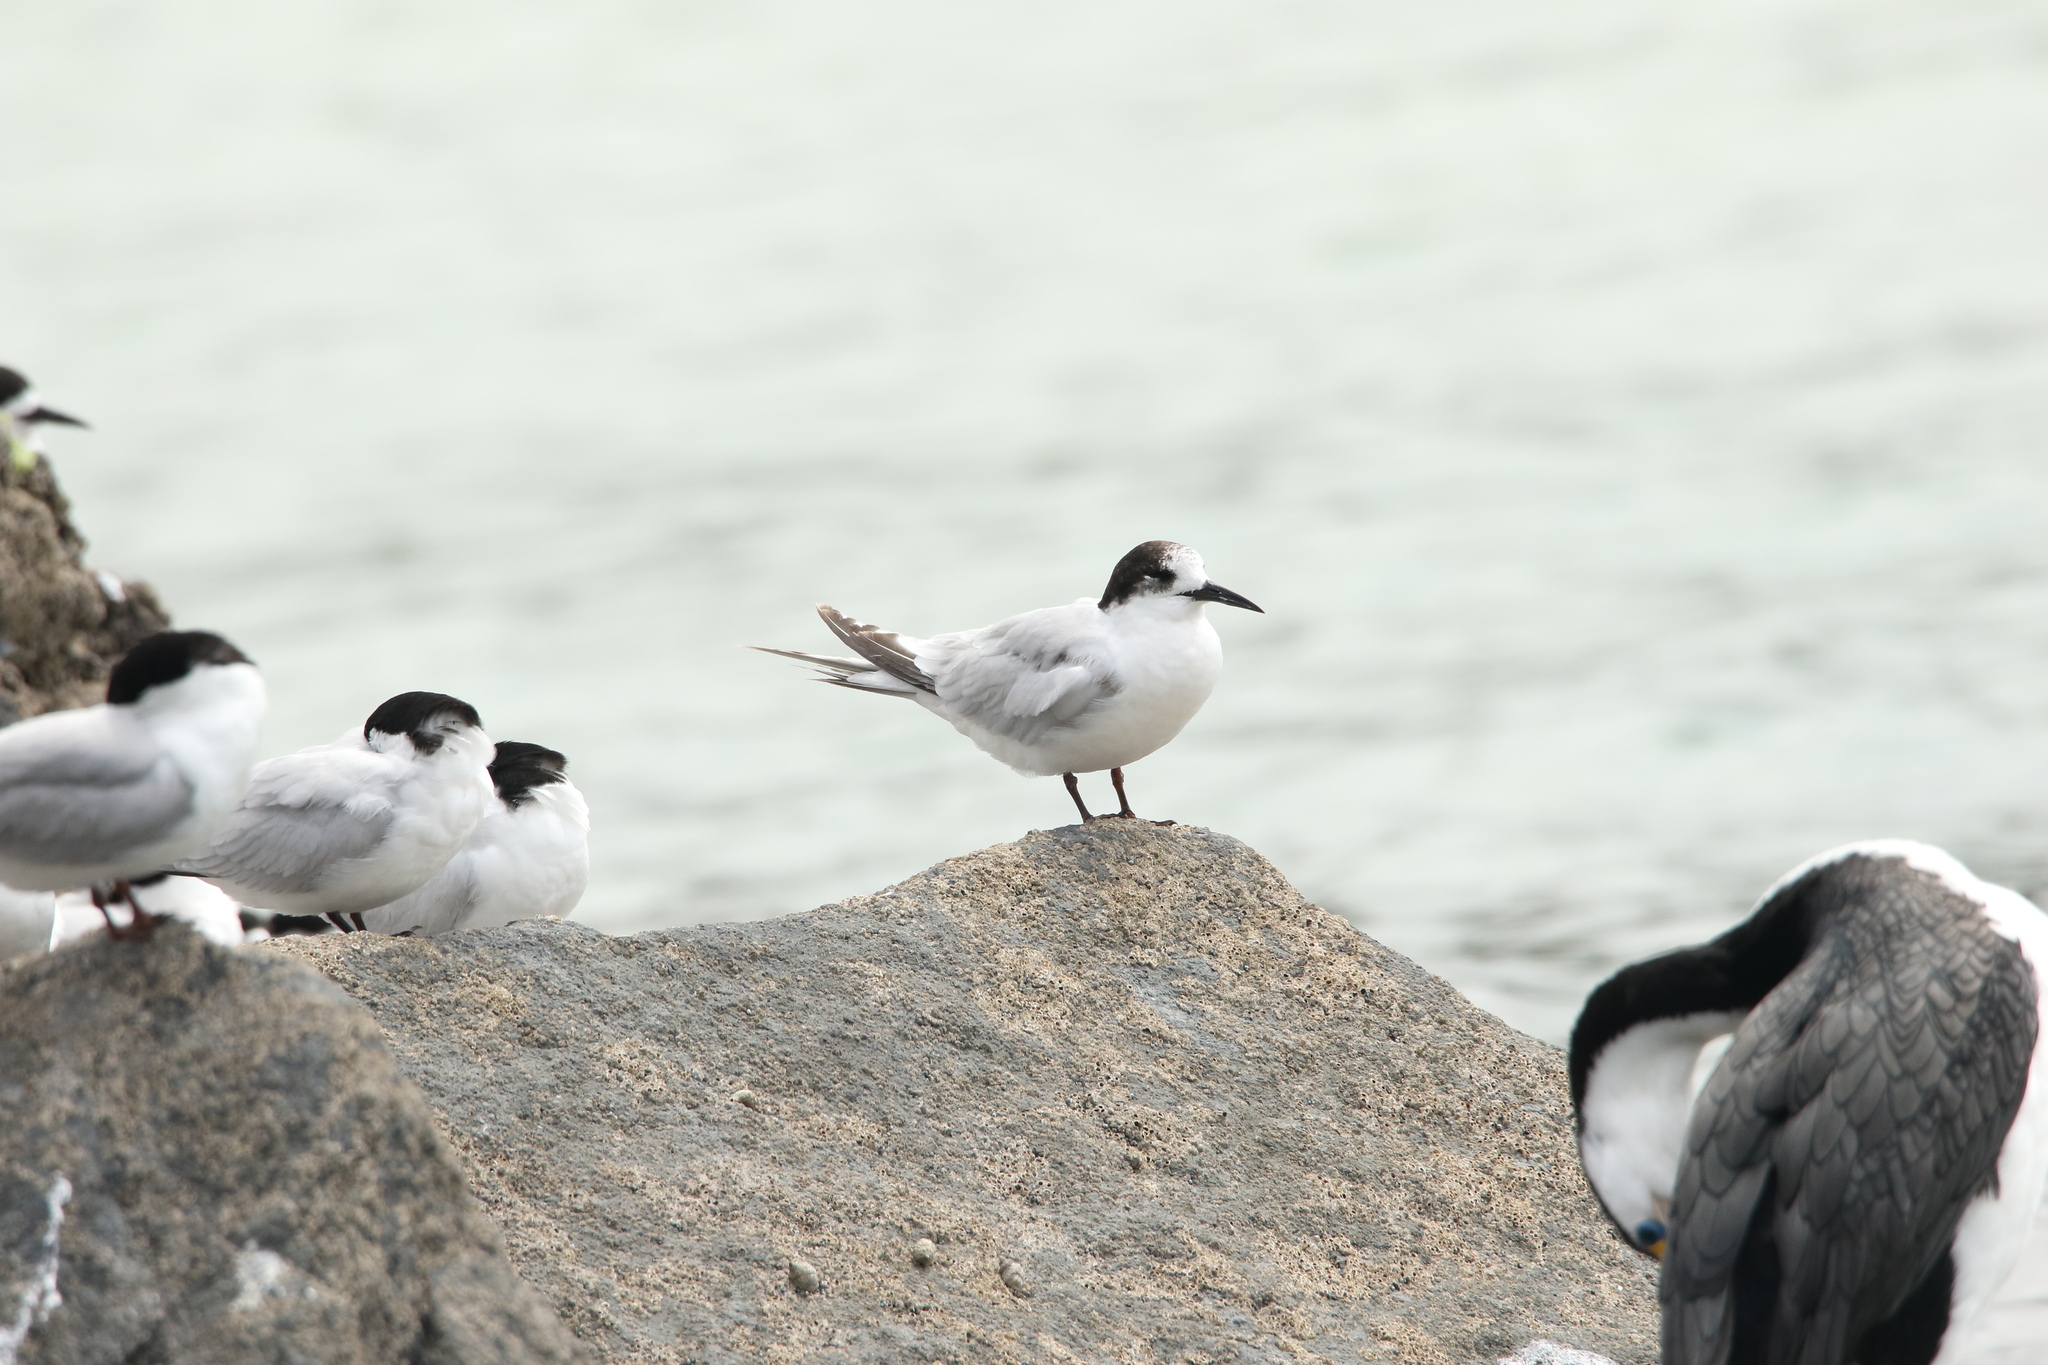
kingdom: Animalia
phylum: Chordata
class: Aves
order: Charadriiformes
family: Laridae
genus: Sterna
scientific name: Sterna striata
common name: White-fronted tern
